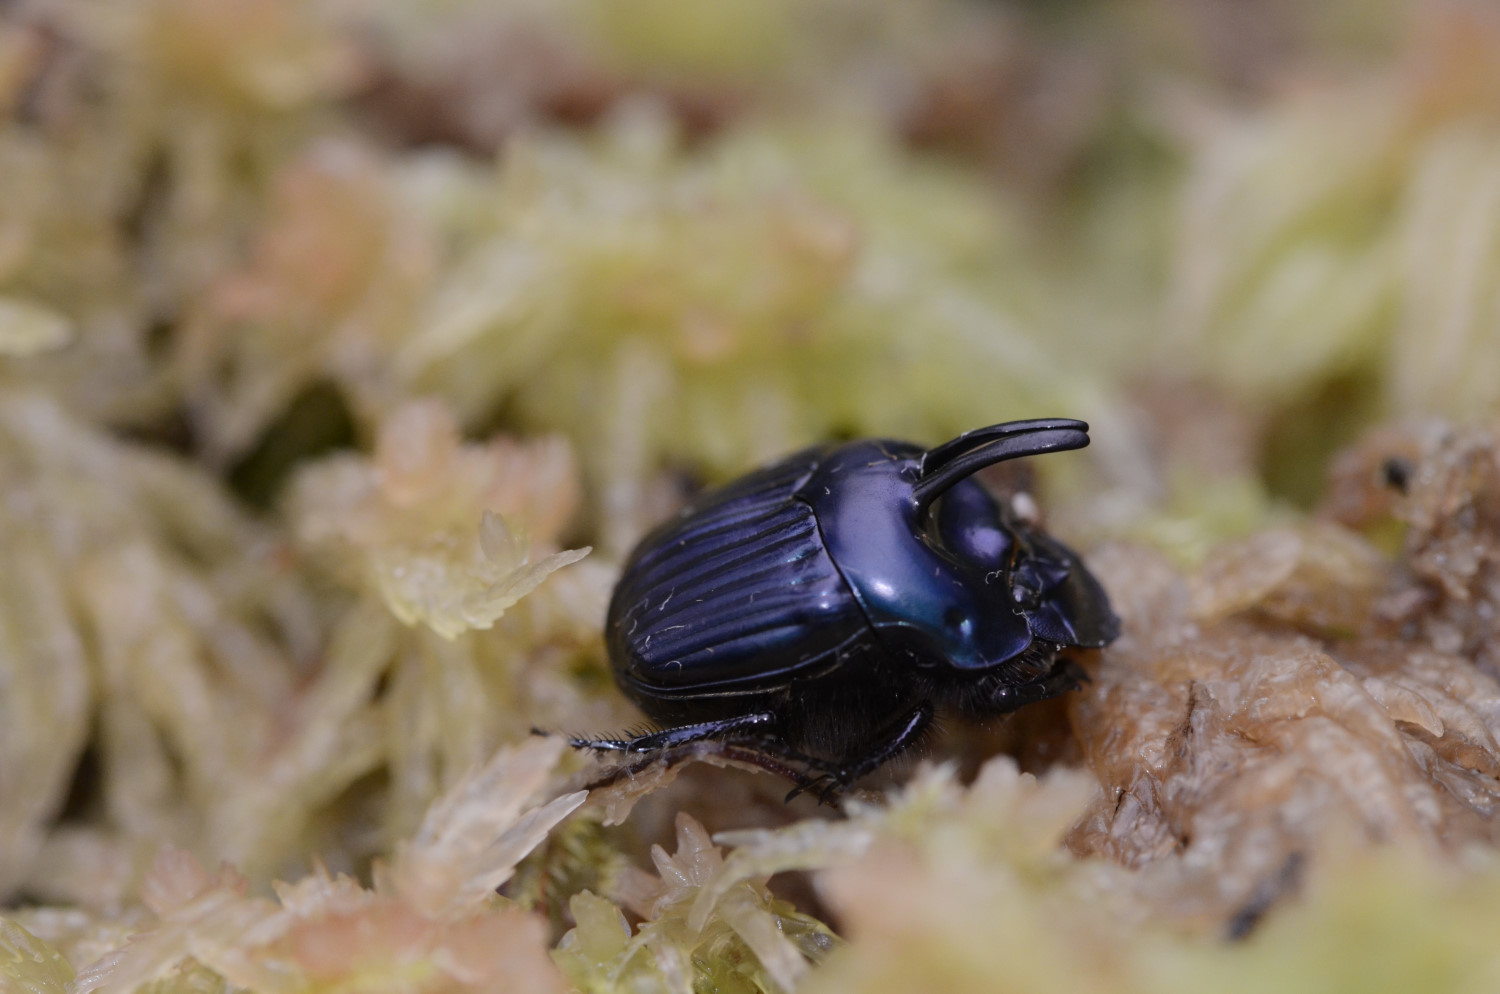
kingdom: Animalia
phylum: Arthropoda
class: Insecta
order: Coleoptera
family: Scarabaeidae
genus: Oxysternon
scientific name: Oxysternon spiniferum
